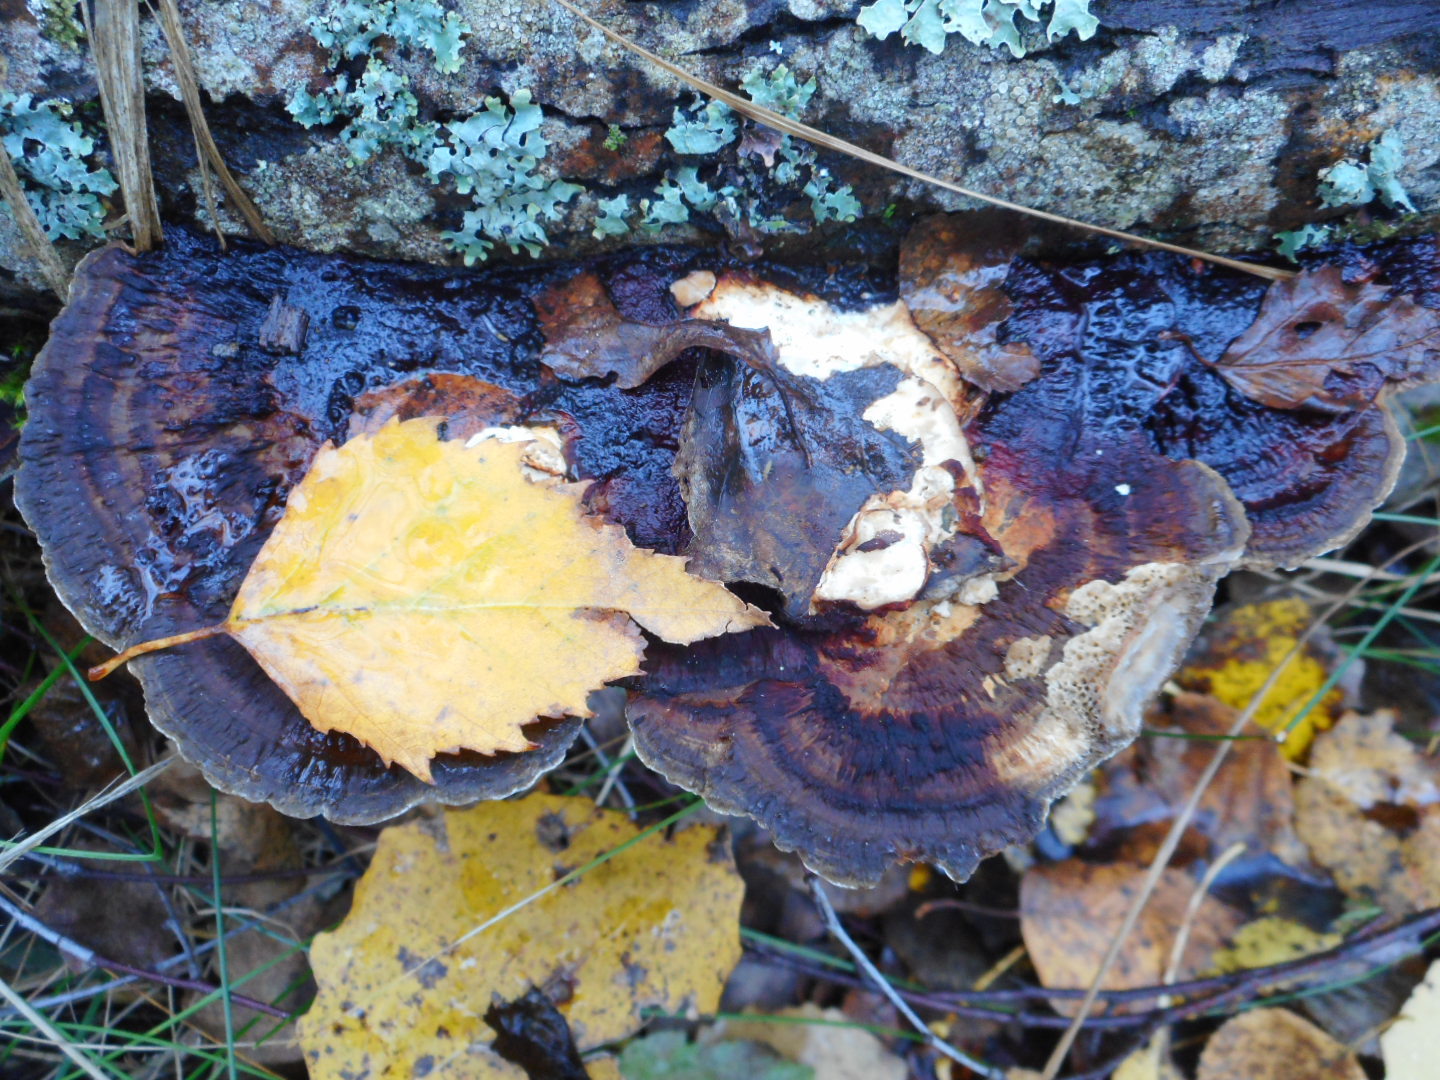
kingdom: Fungi
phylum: Basidiomycota
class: Agaricomycetes
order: Polyporales
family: Polyporaceae
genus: Daedaleopsis
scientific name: Daedaleopsis confragosa
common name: Blushing bracket
